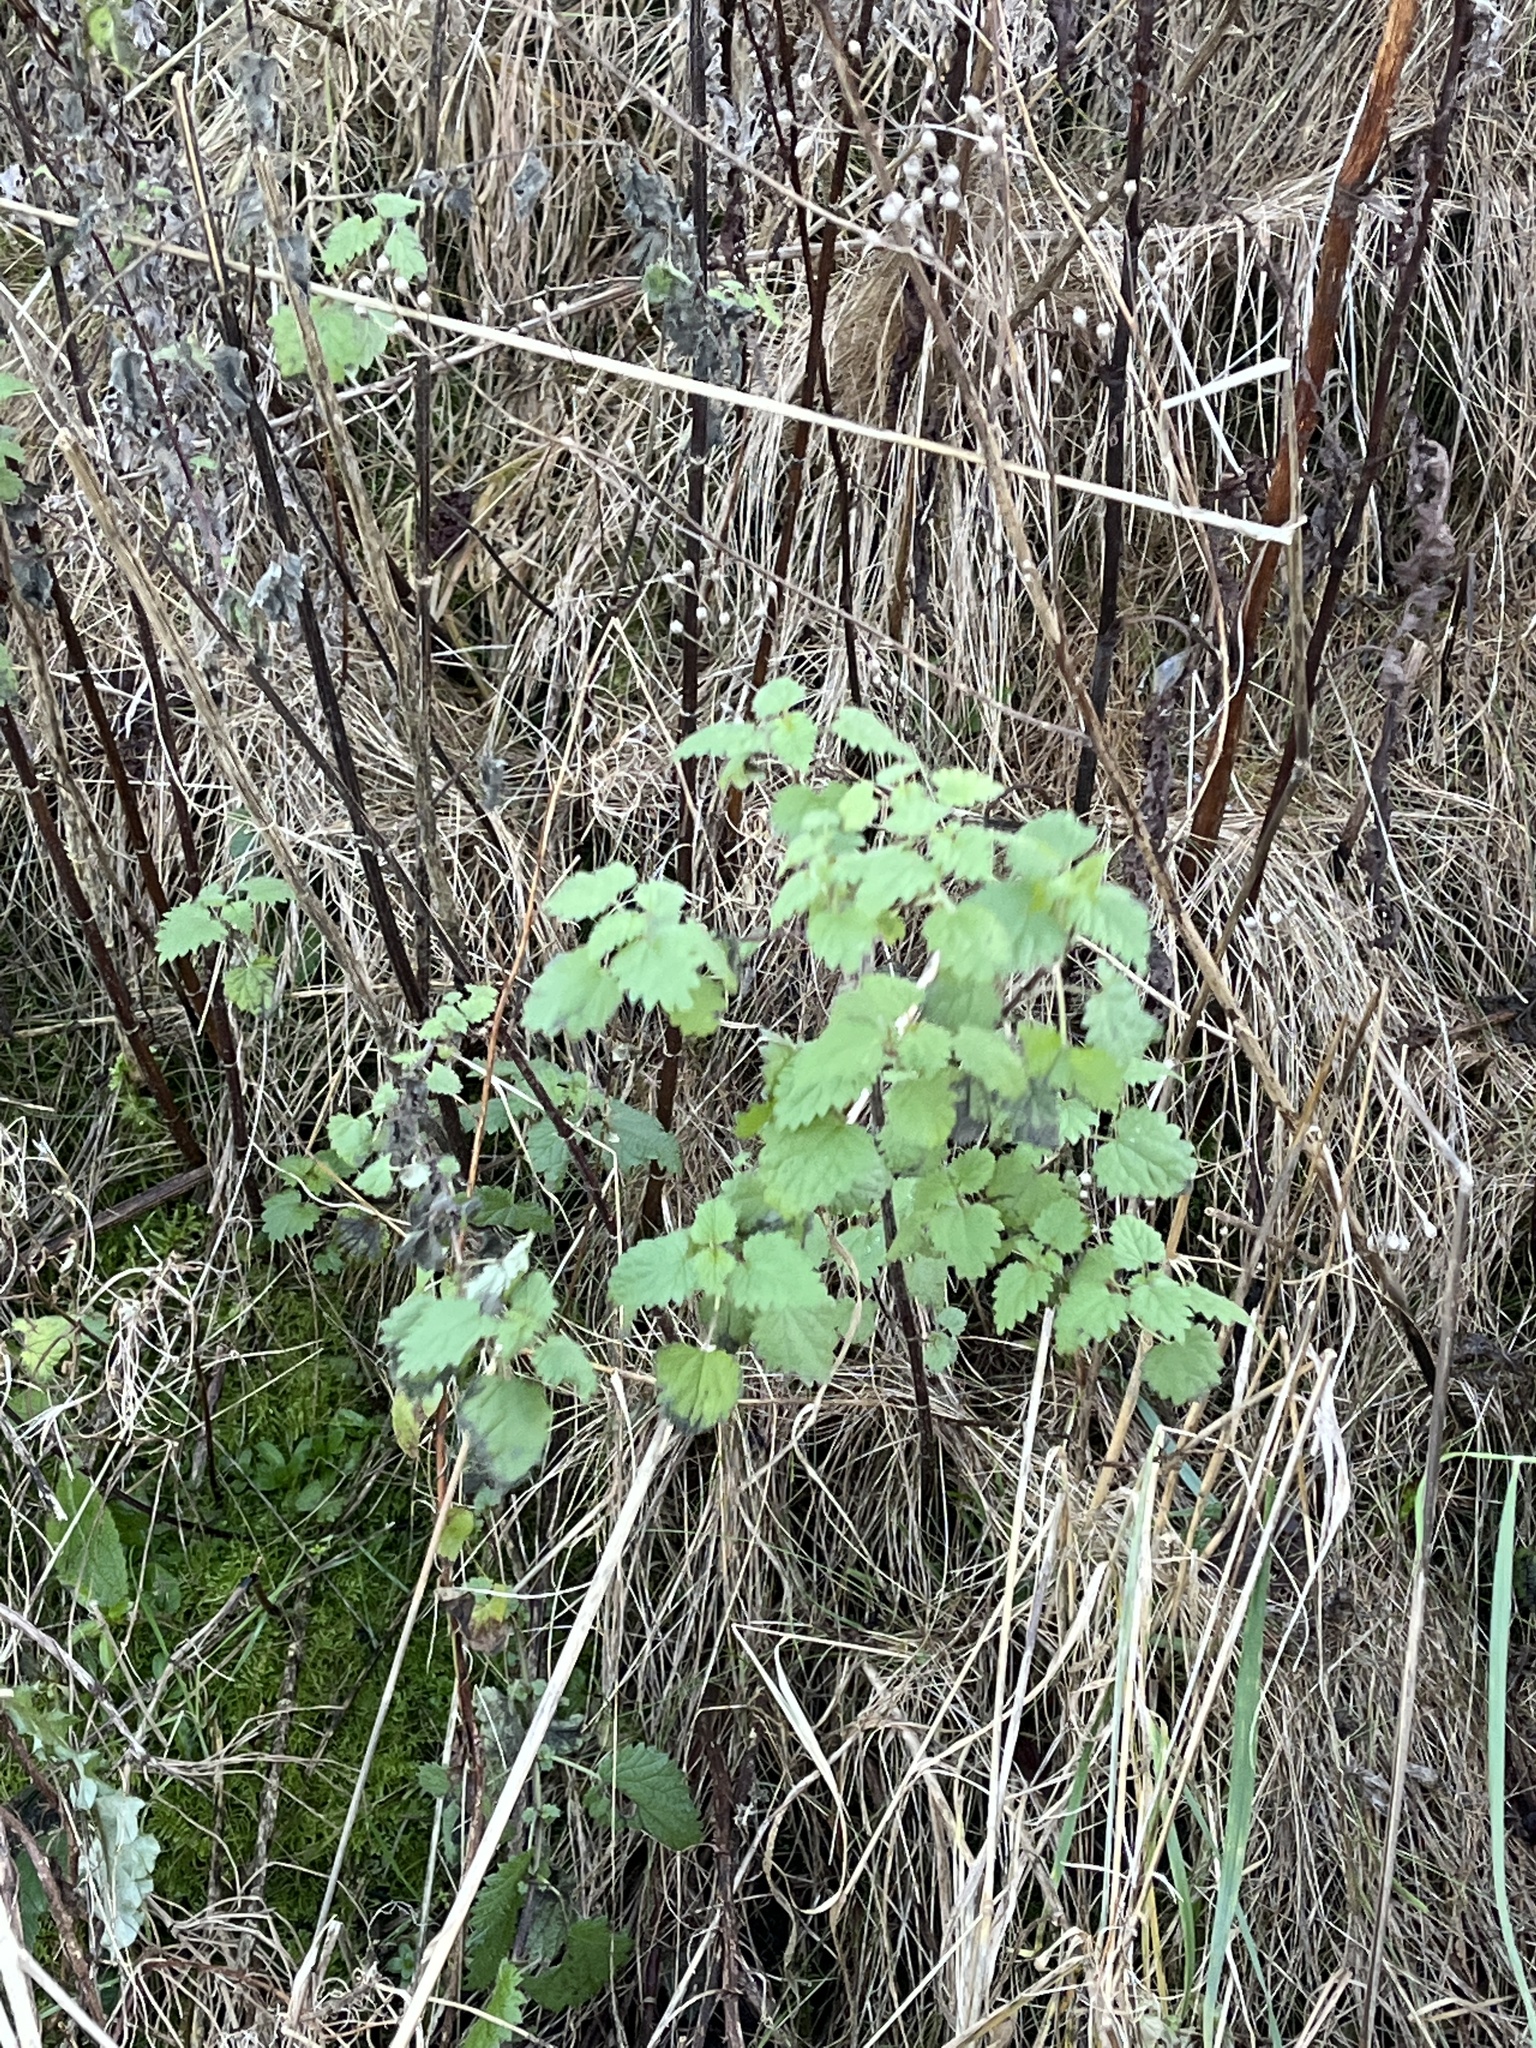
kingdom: Plantae
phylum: Tracheophyta
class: Magnoliopsida
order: Rosales
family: Urticaceae
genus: Urtica
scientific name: Urtica dioica
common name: Common nettle
